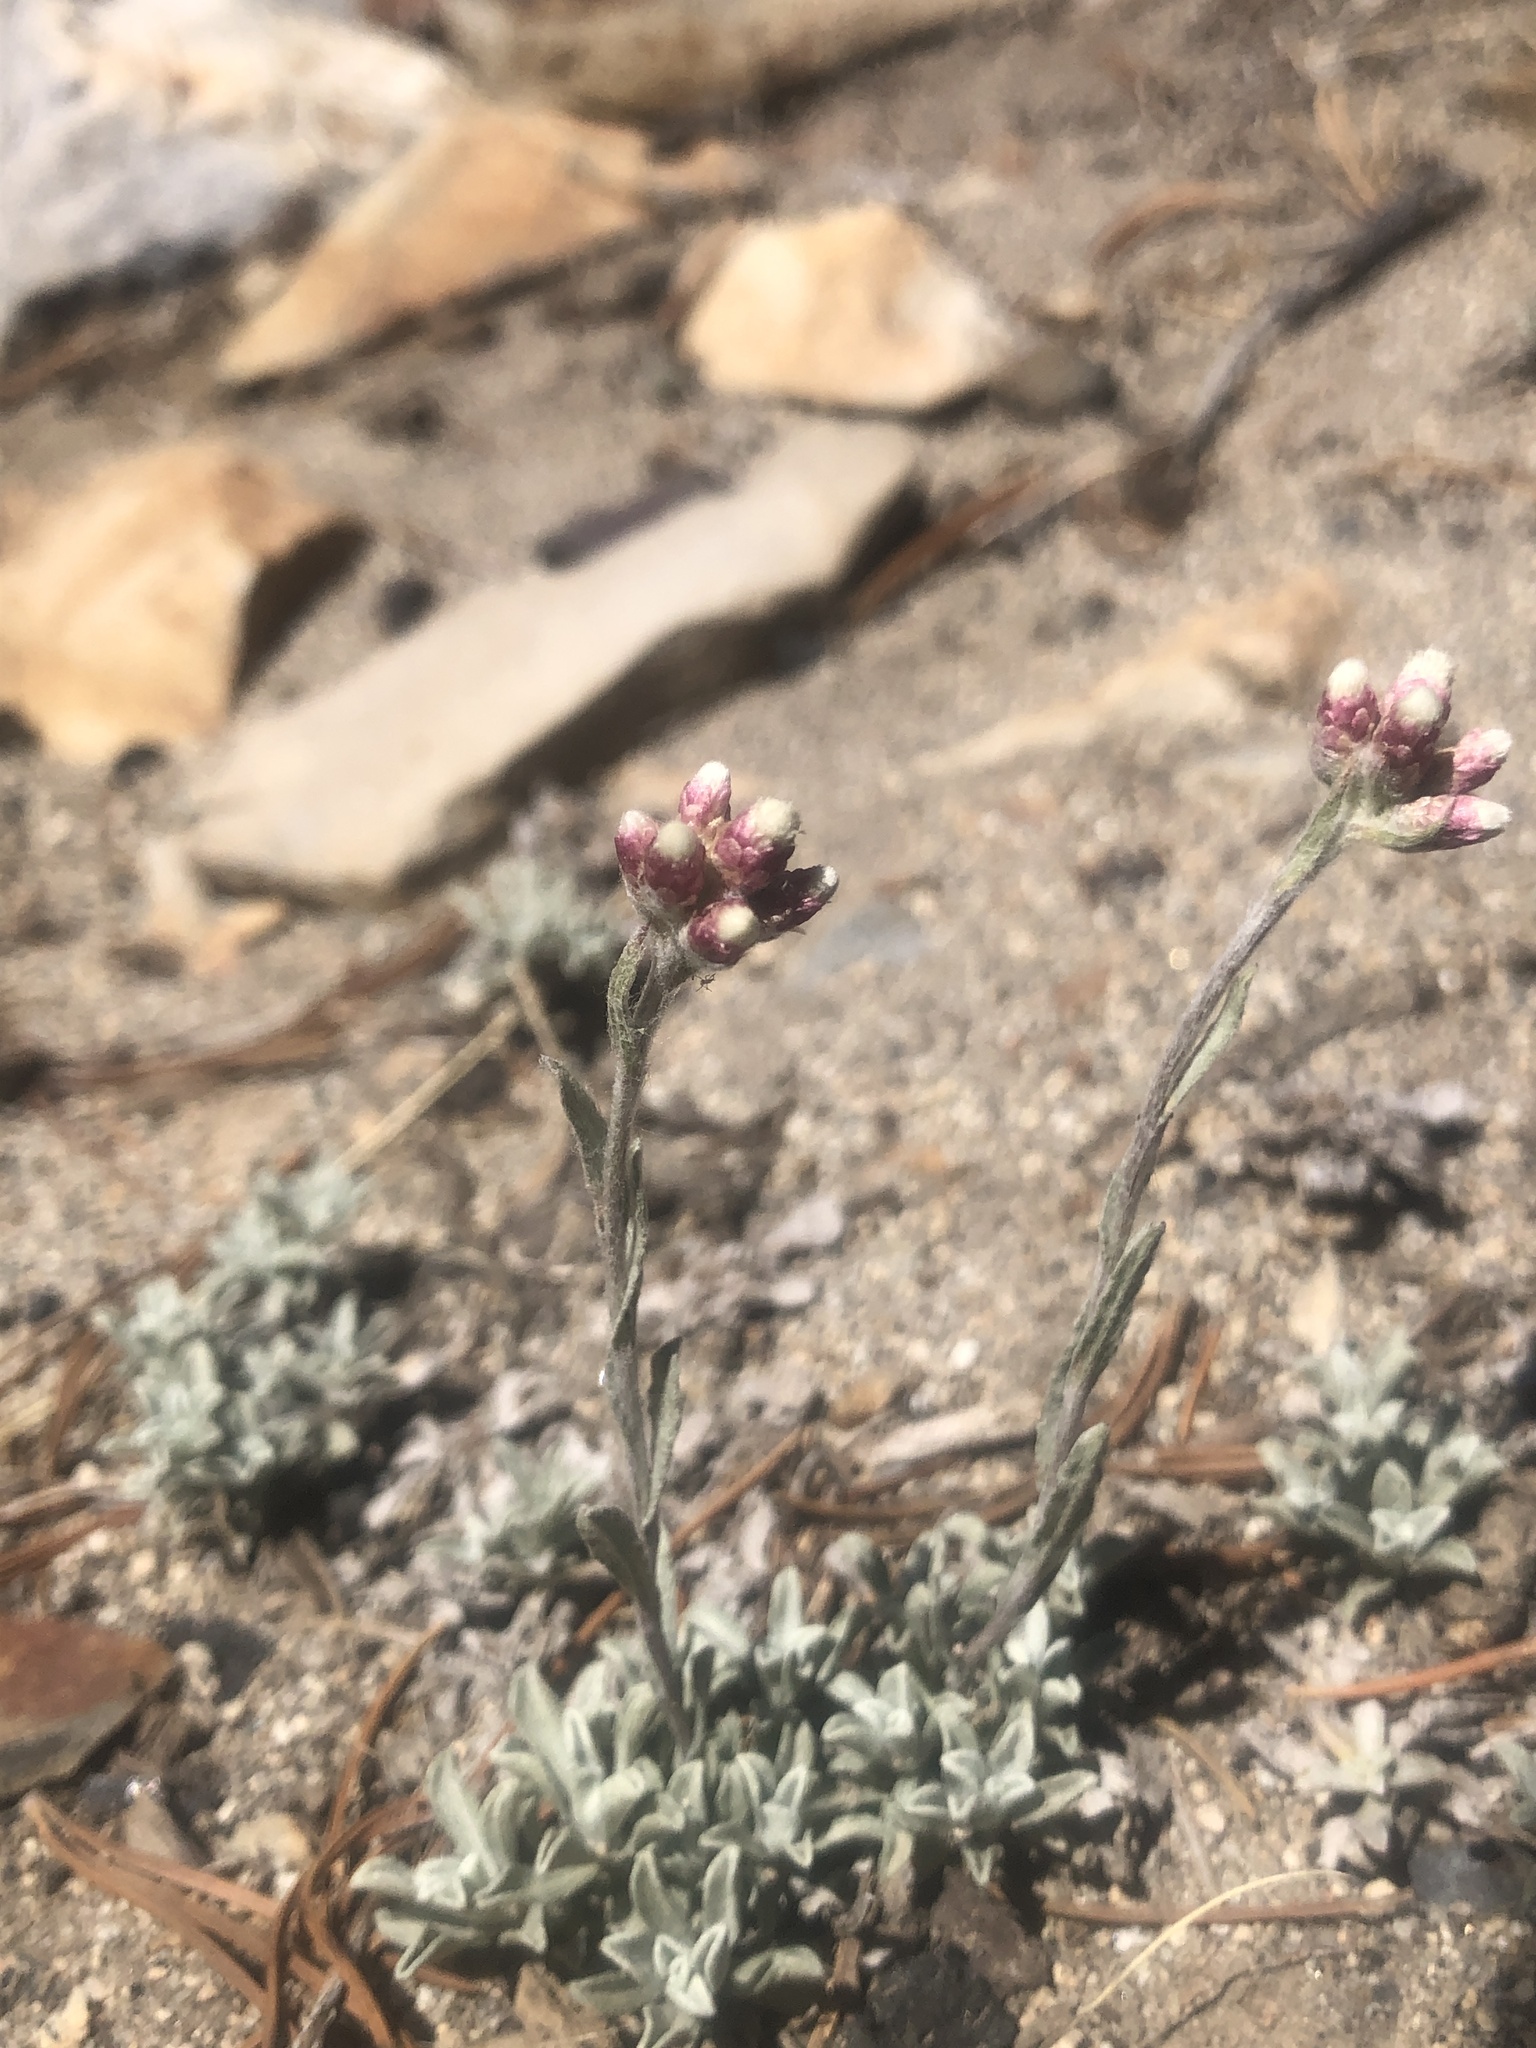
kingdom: Plantae
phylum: Tracheophyta
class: Magnoliopsida
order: Asterales
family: Asteraceae
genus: Antennaria
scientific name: Antennaria rosea
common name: Rosy pussytoes
